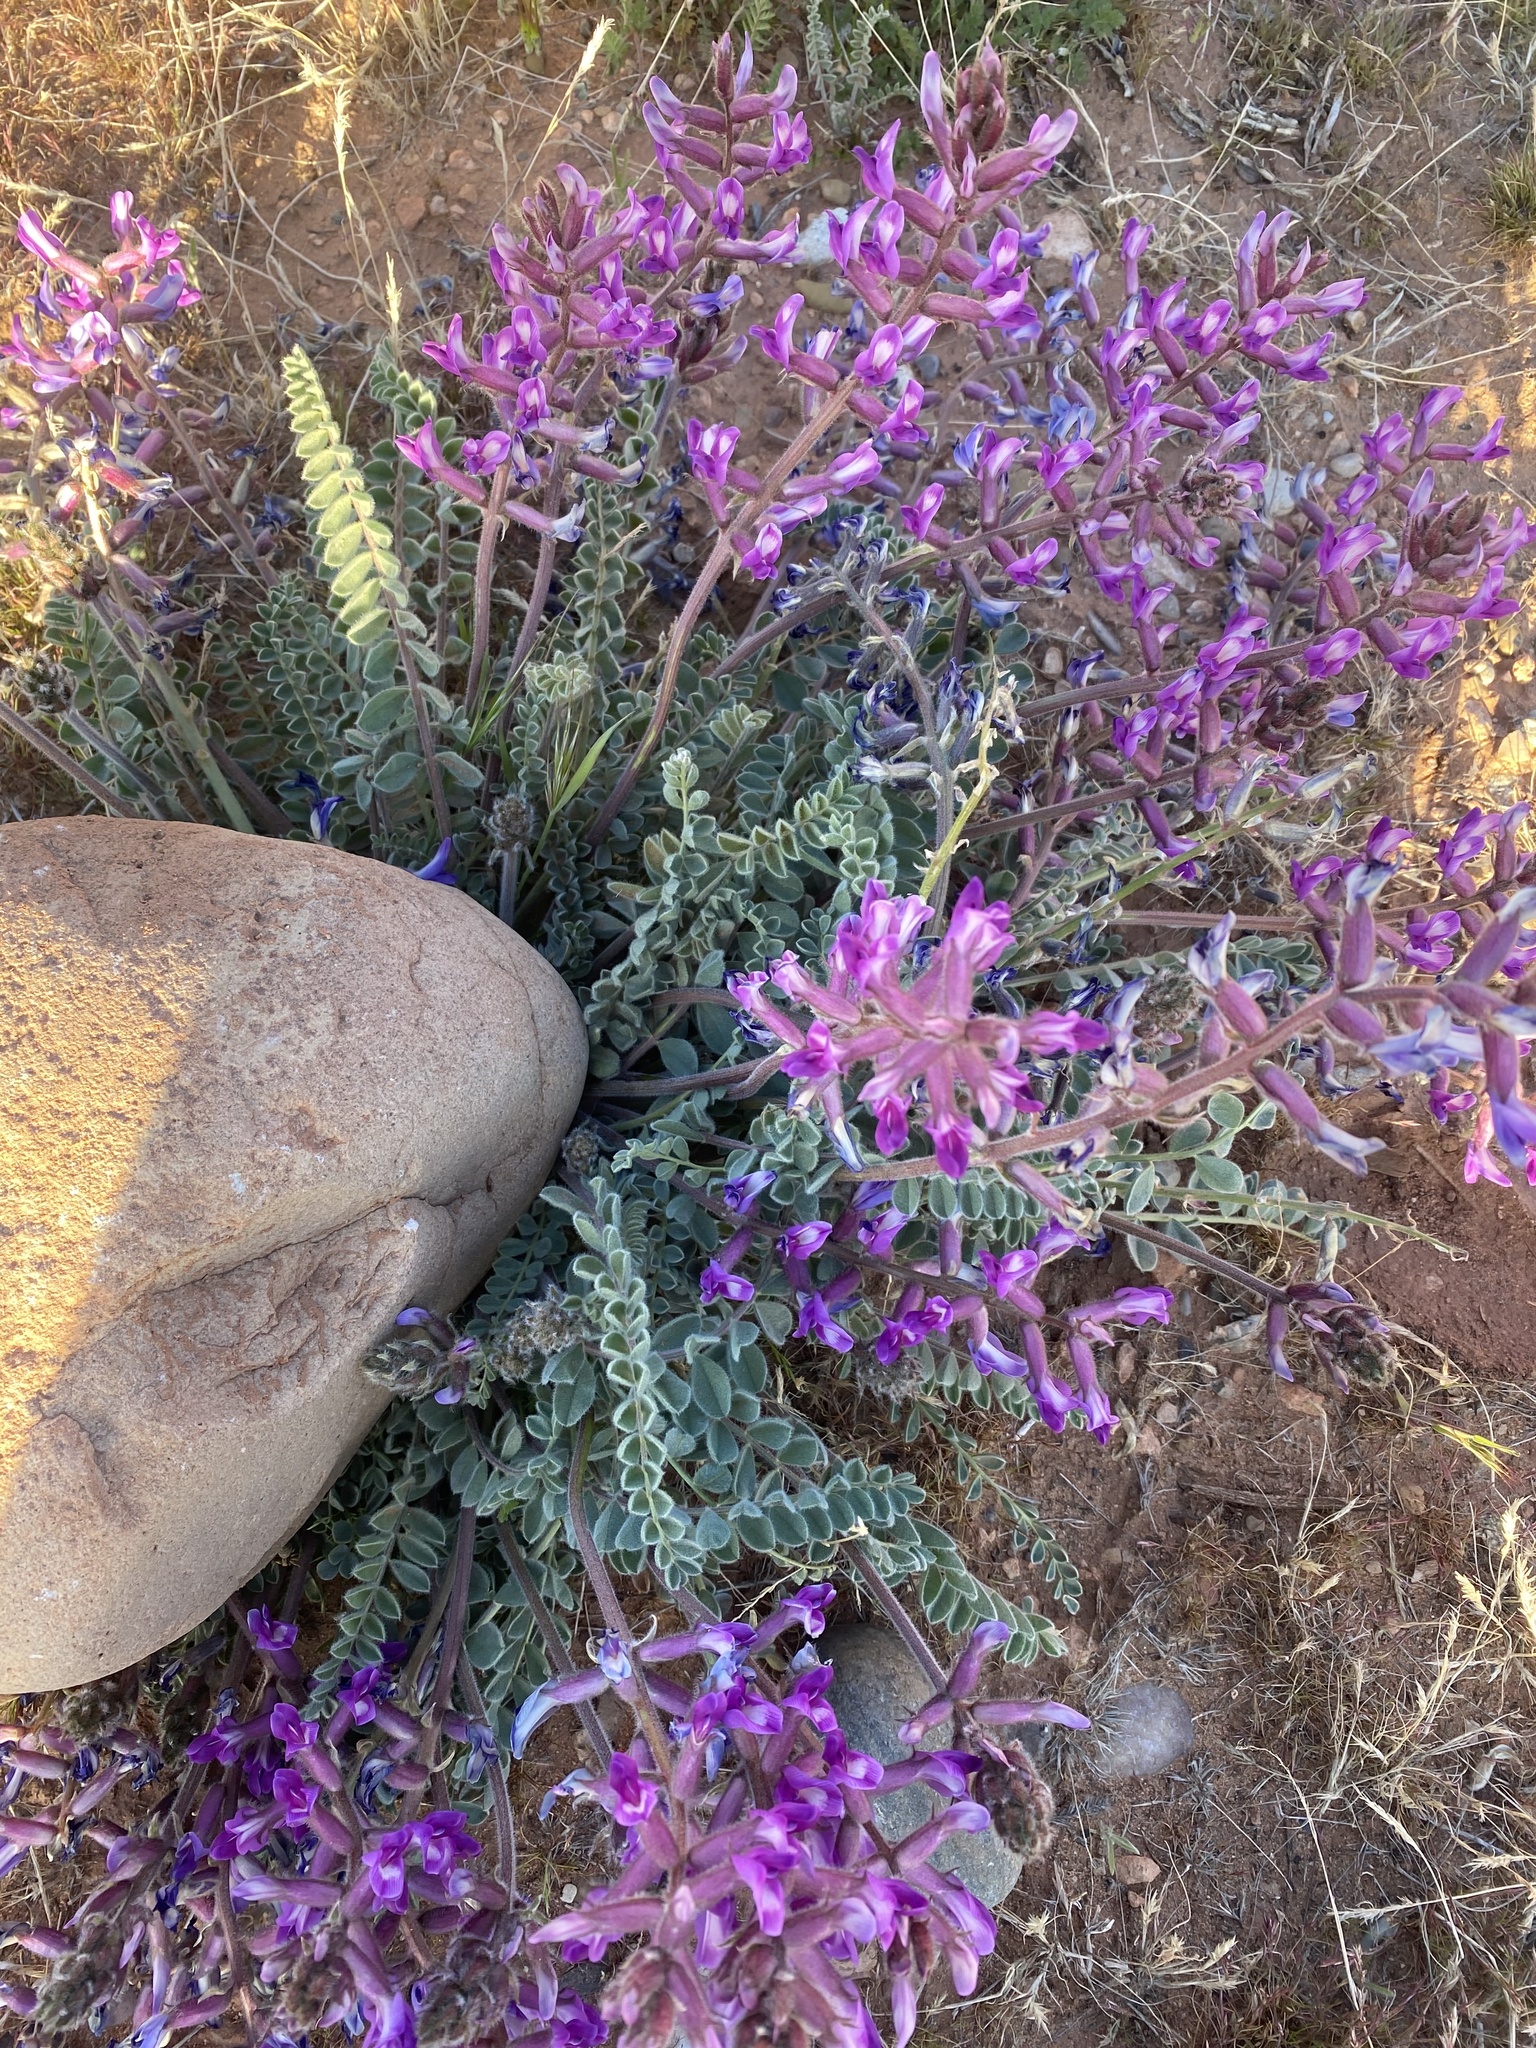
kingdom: Plantae
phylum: Tracheophyta
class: Magnoliopsida
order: Fabales
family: Fabaceae
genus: Astragalus
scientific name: Astragalus mollissimus
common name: Woolly locoweed
